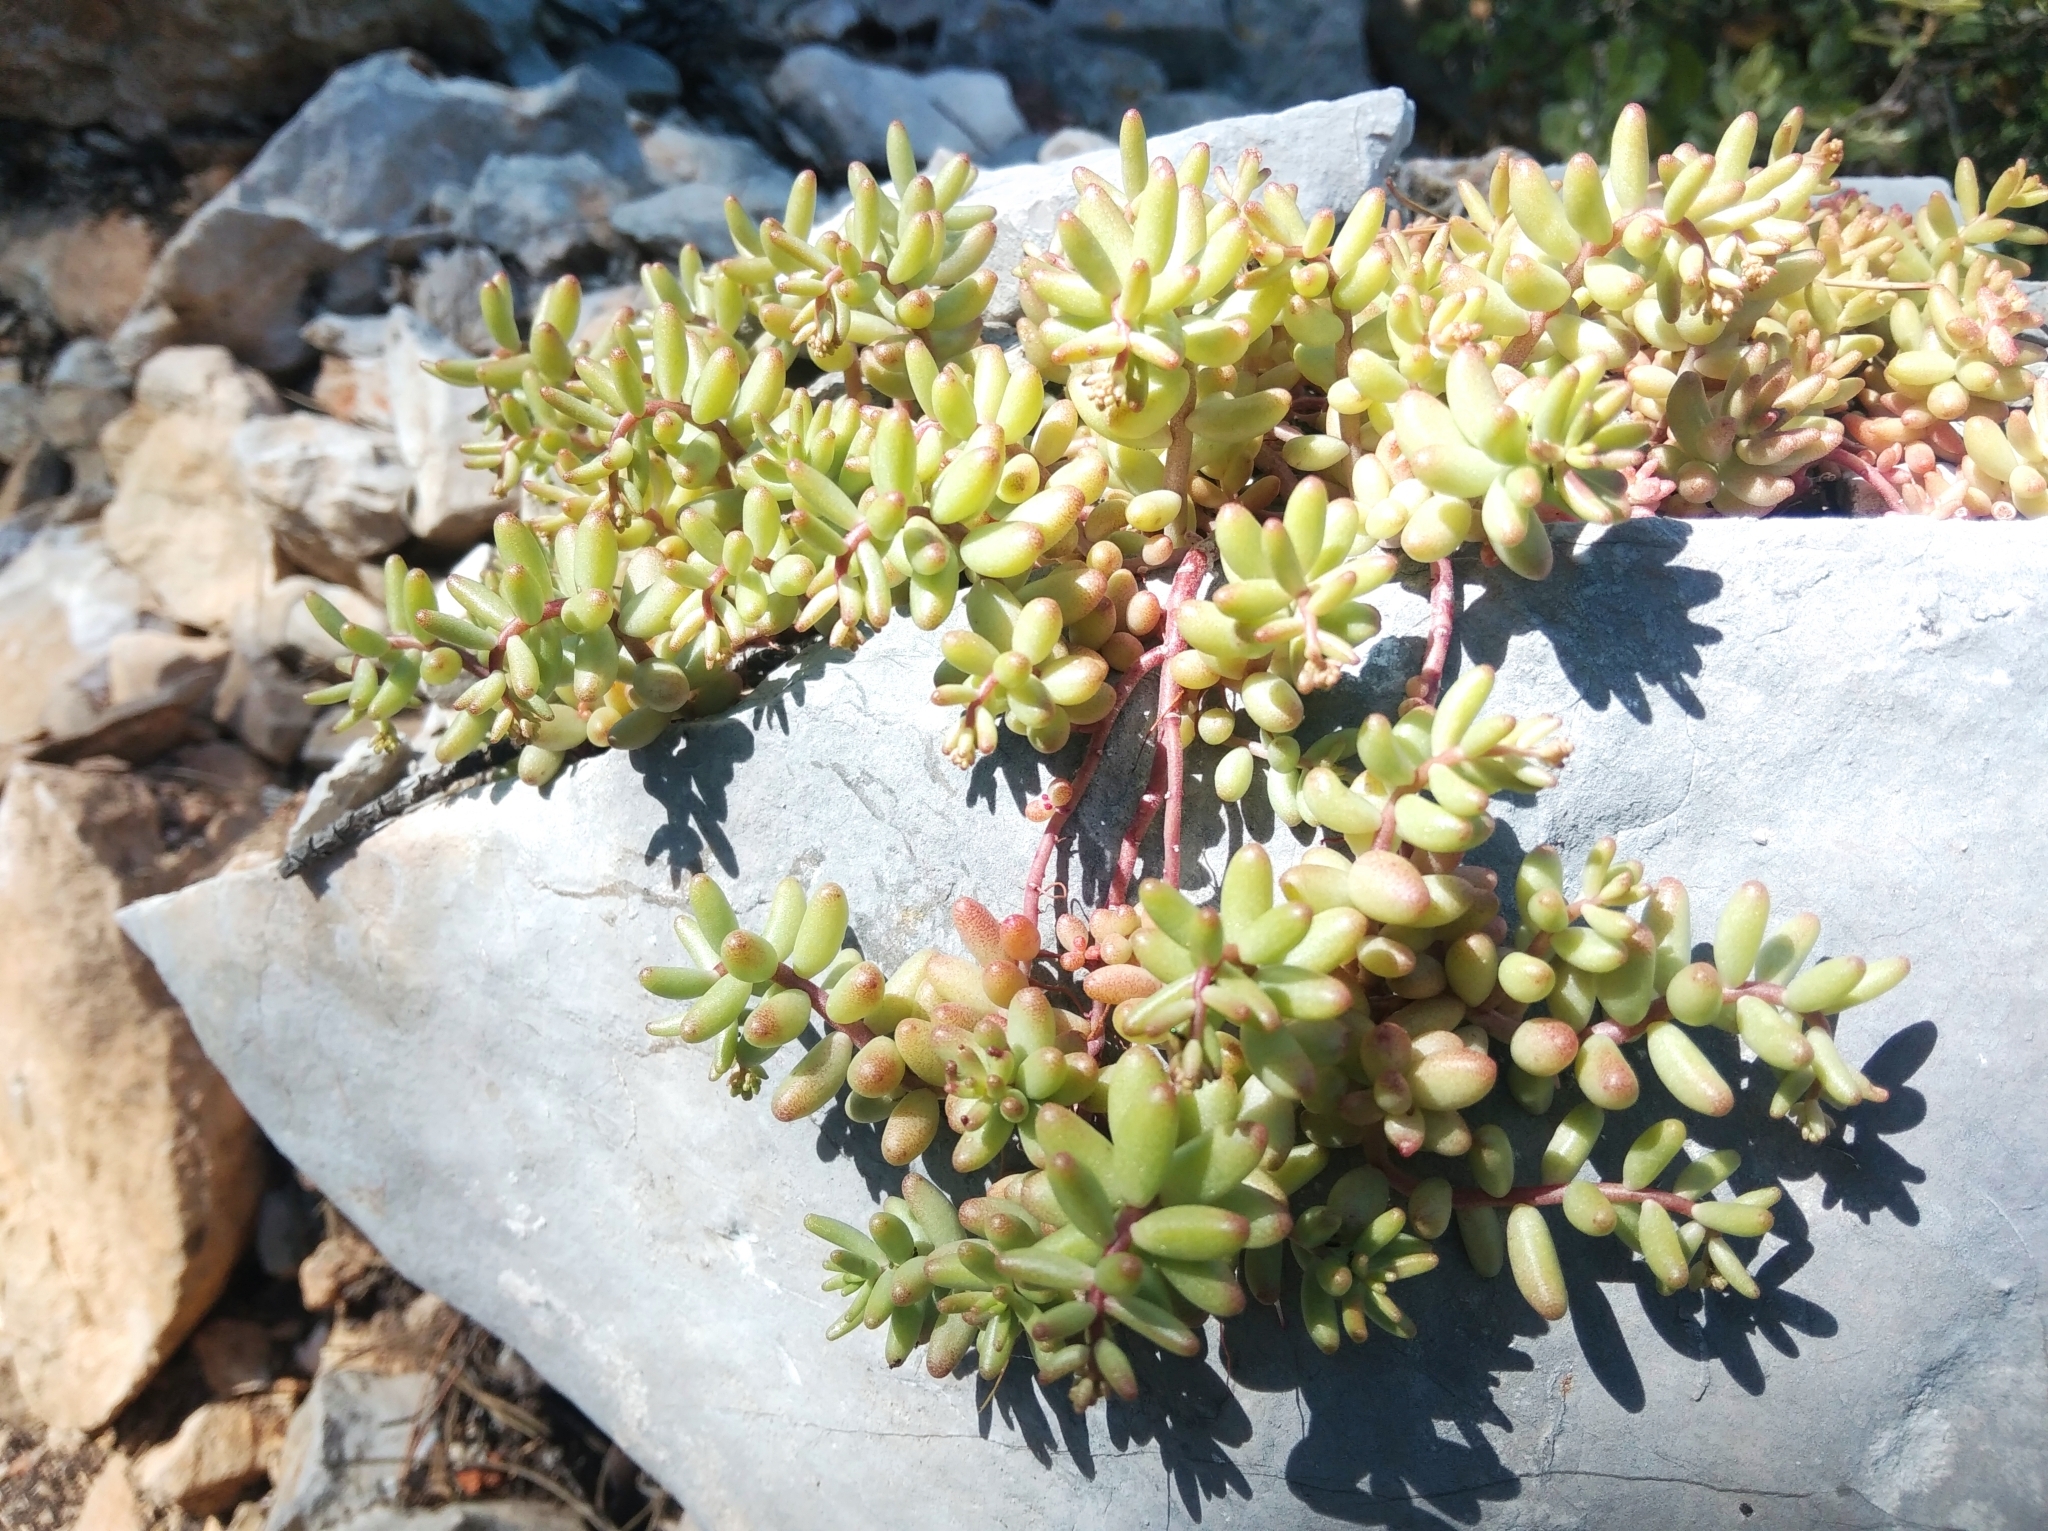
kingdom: Plantae
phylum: Tracheophyta
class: Magnoliopsida
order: Saxifragales
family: Crassulaceae
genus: Sedum
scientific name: Sedum album
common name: White stonecrop
